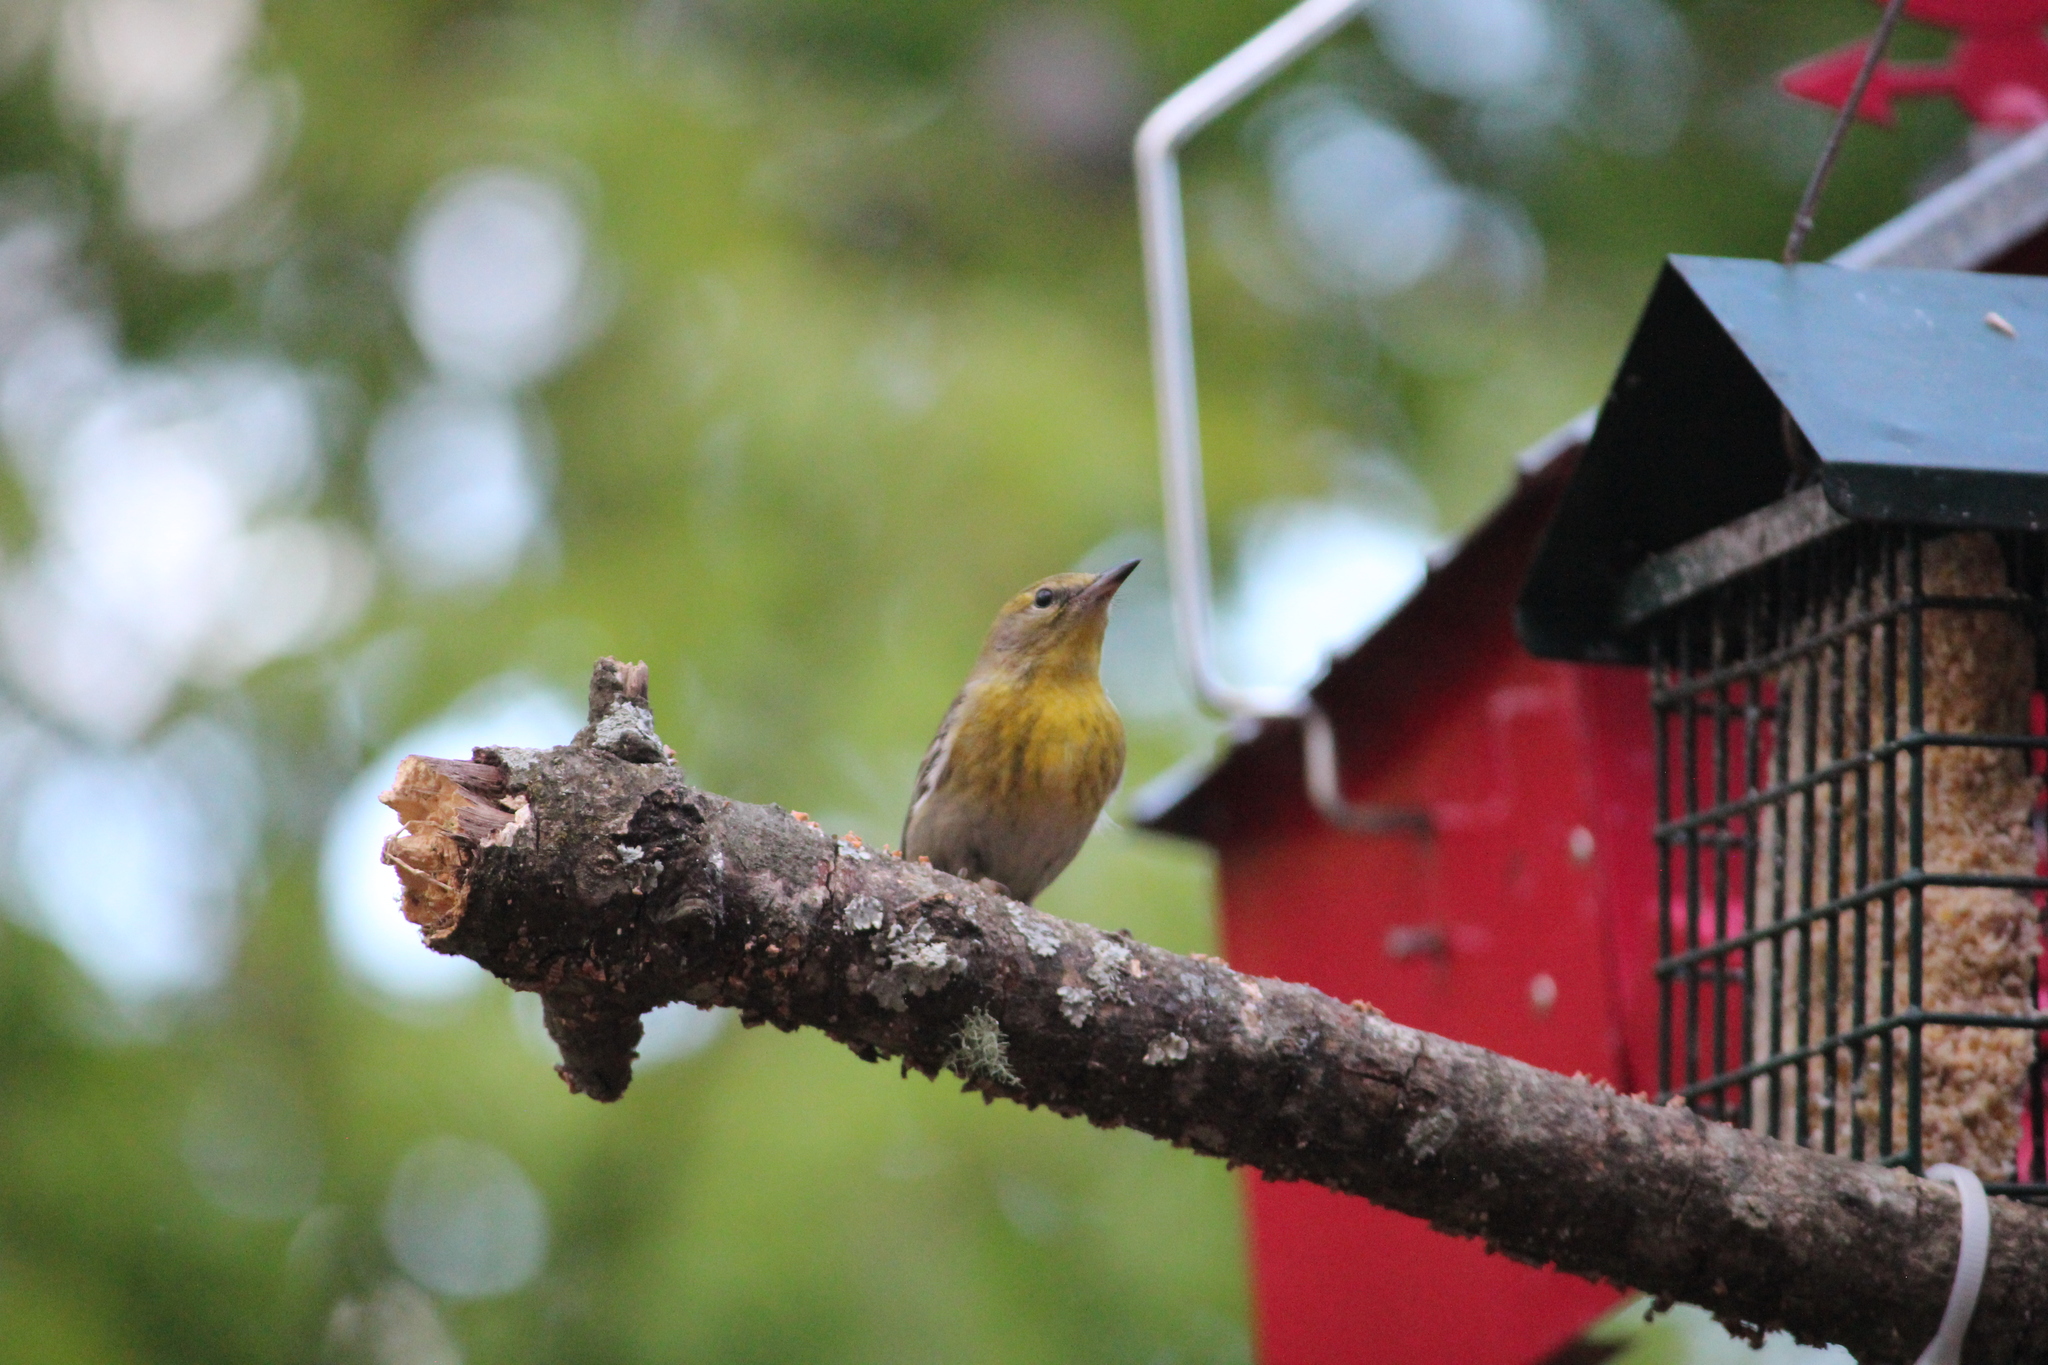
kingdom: Animalia
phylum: Chordata
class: Aves
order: Passeriformes
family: Parulidae
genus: Setophaga
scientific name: Setophaga pinus
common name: Pine warbler
